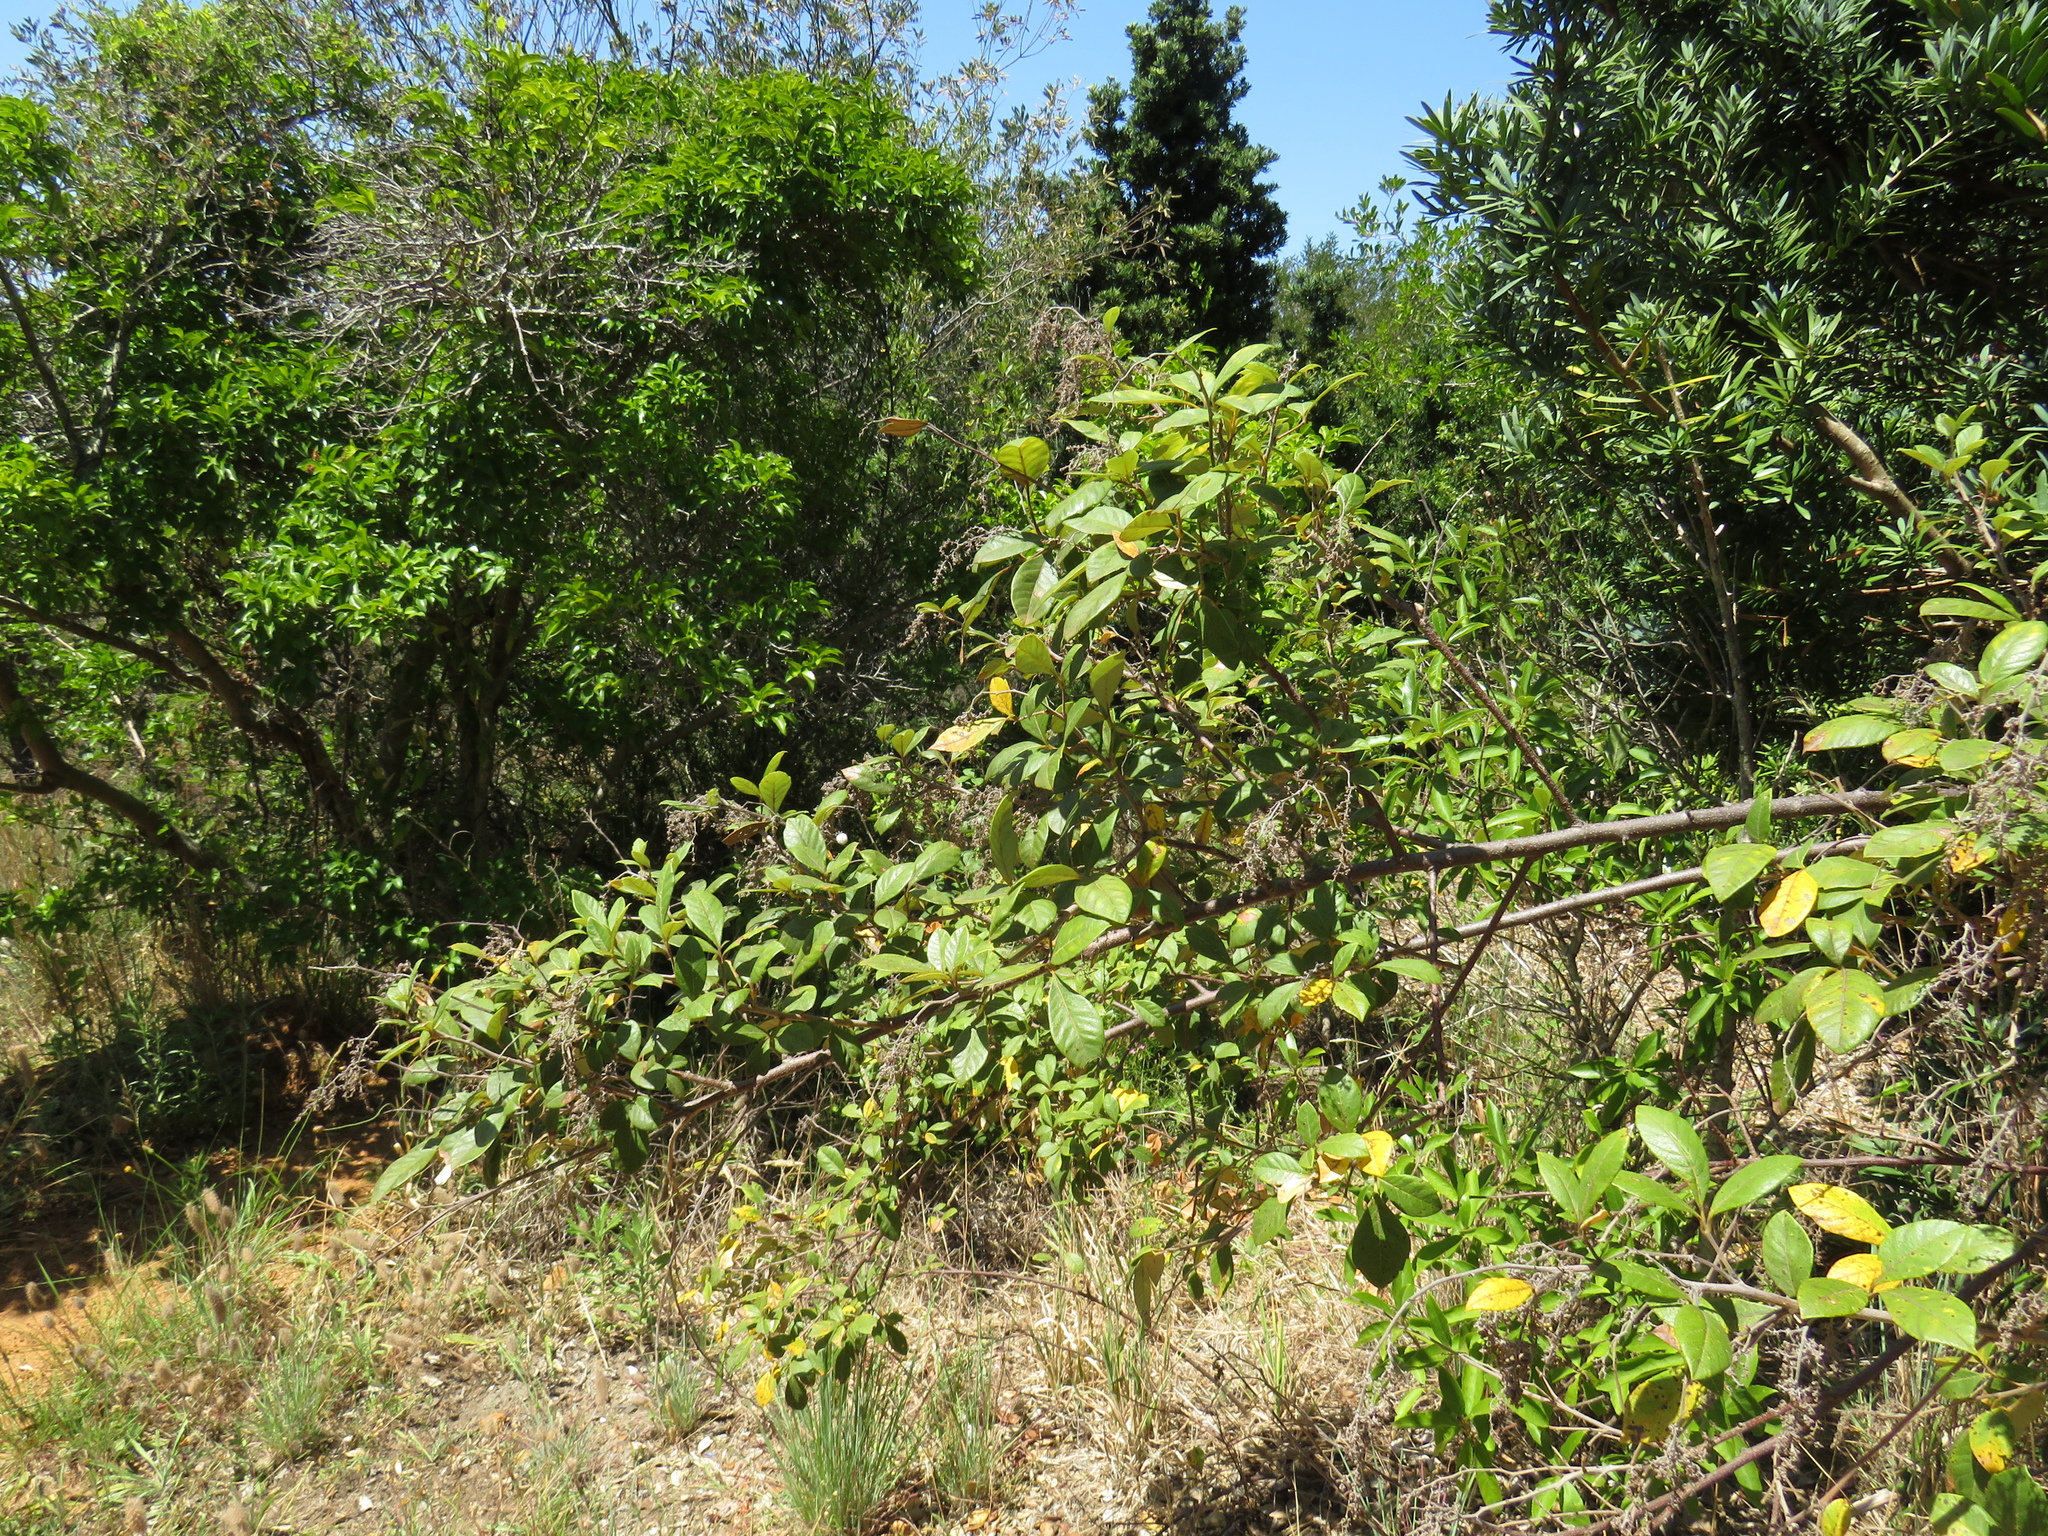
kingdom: Plantae
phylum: Tracheophyta
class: Magnoliopsida
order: Sapindales
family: Anacardiaceae
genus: Searsia
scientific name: Searsia tomentosa
